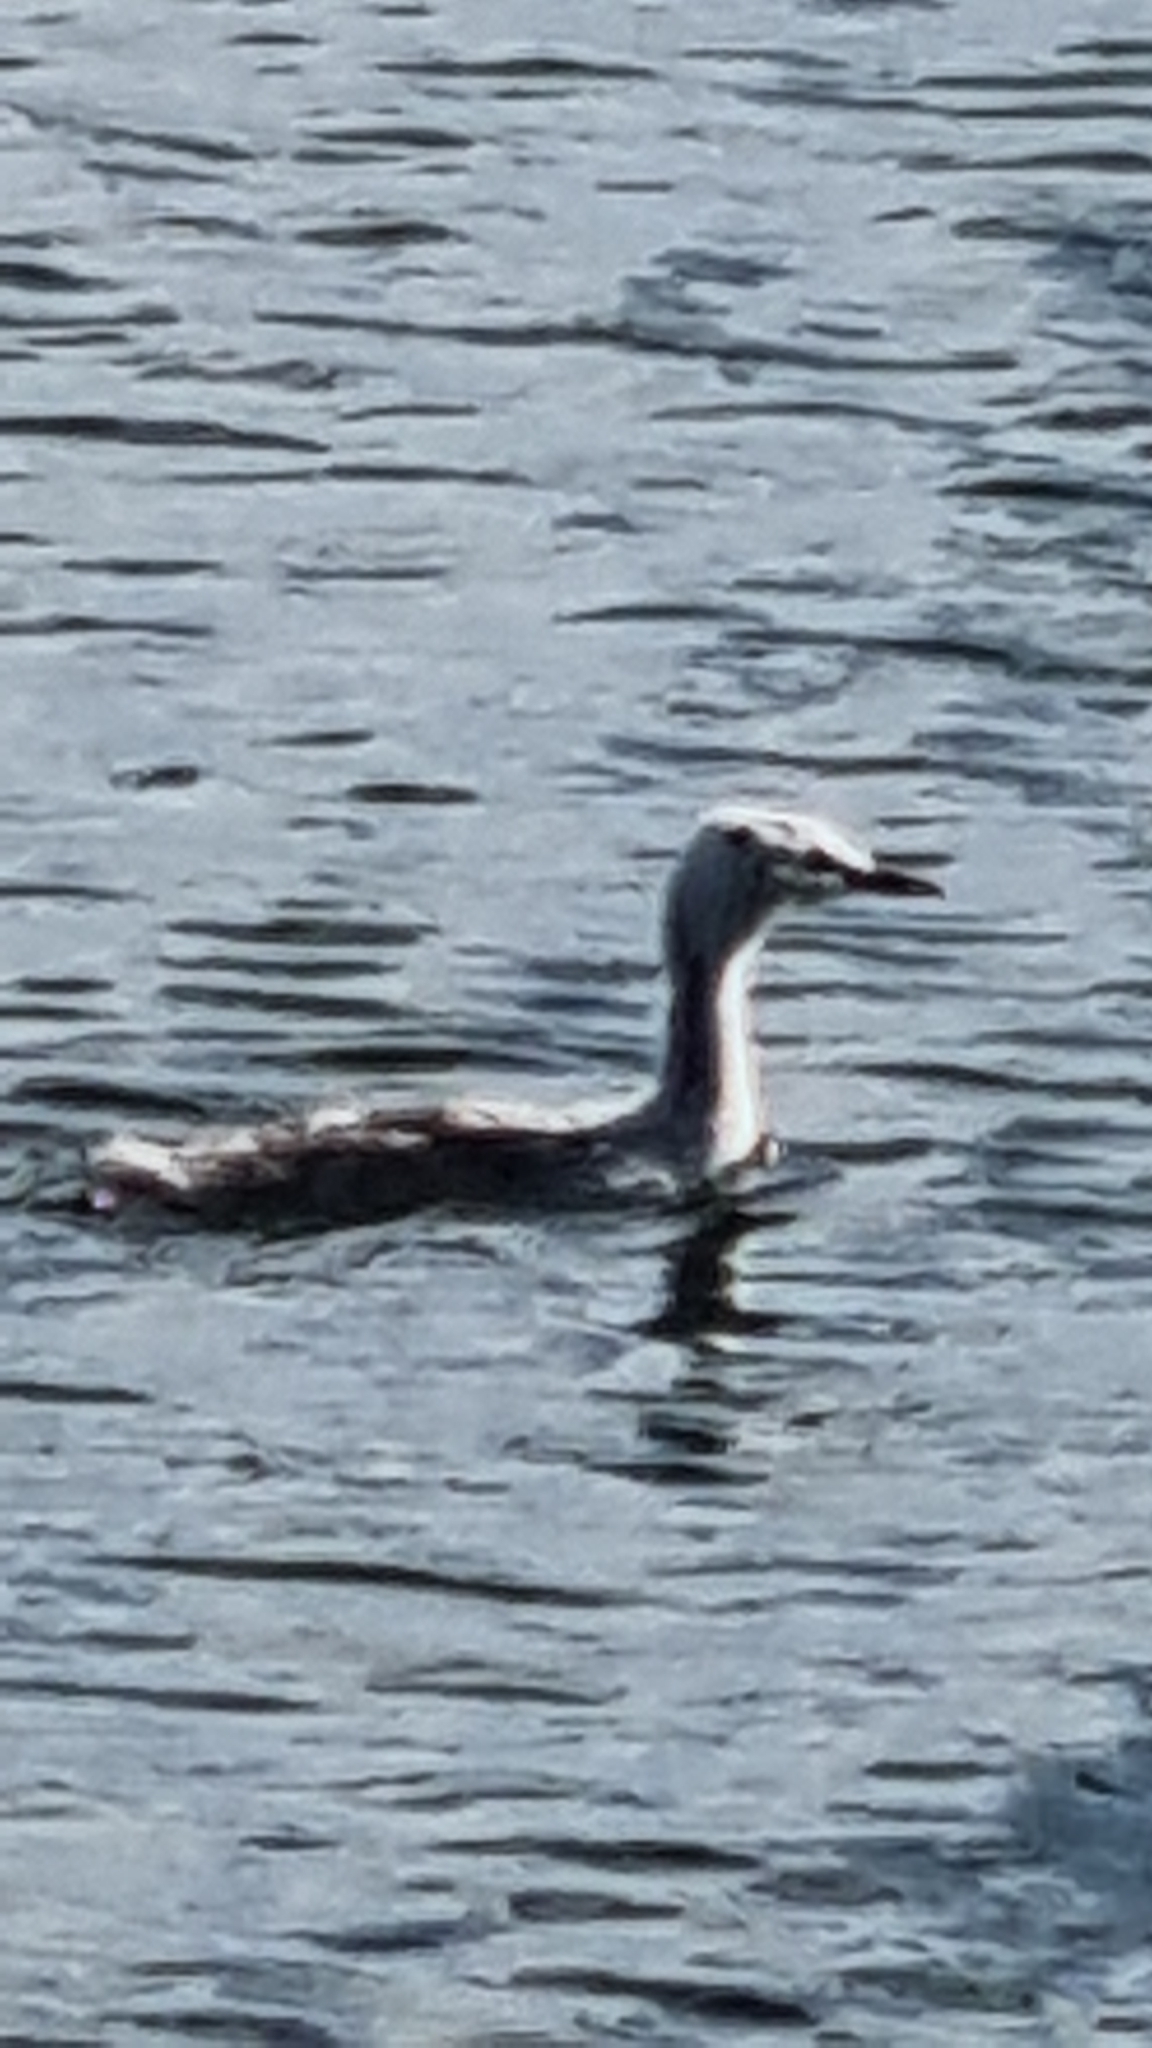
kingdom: Animalia
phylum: Chordata
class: Aves
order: Podicipediformes
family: Podicipedidae
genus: Podiceps
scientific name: Podiceps cristatus
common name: Great crested grebe
